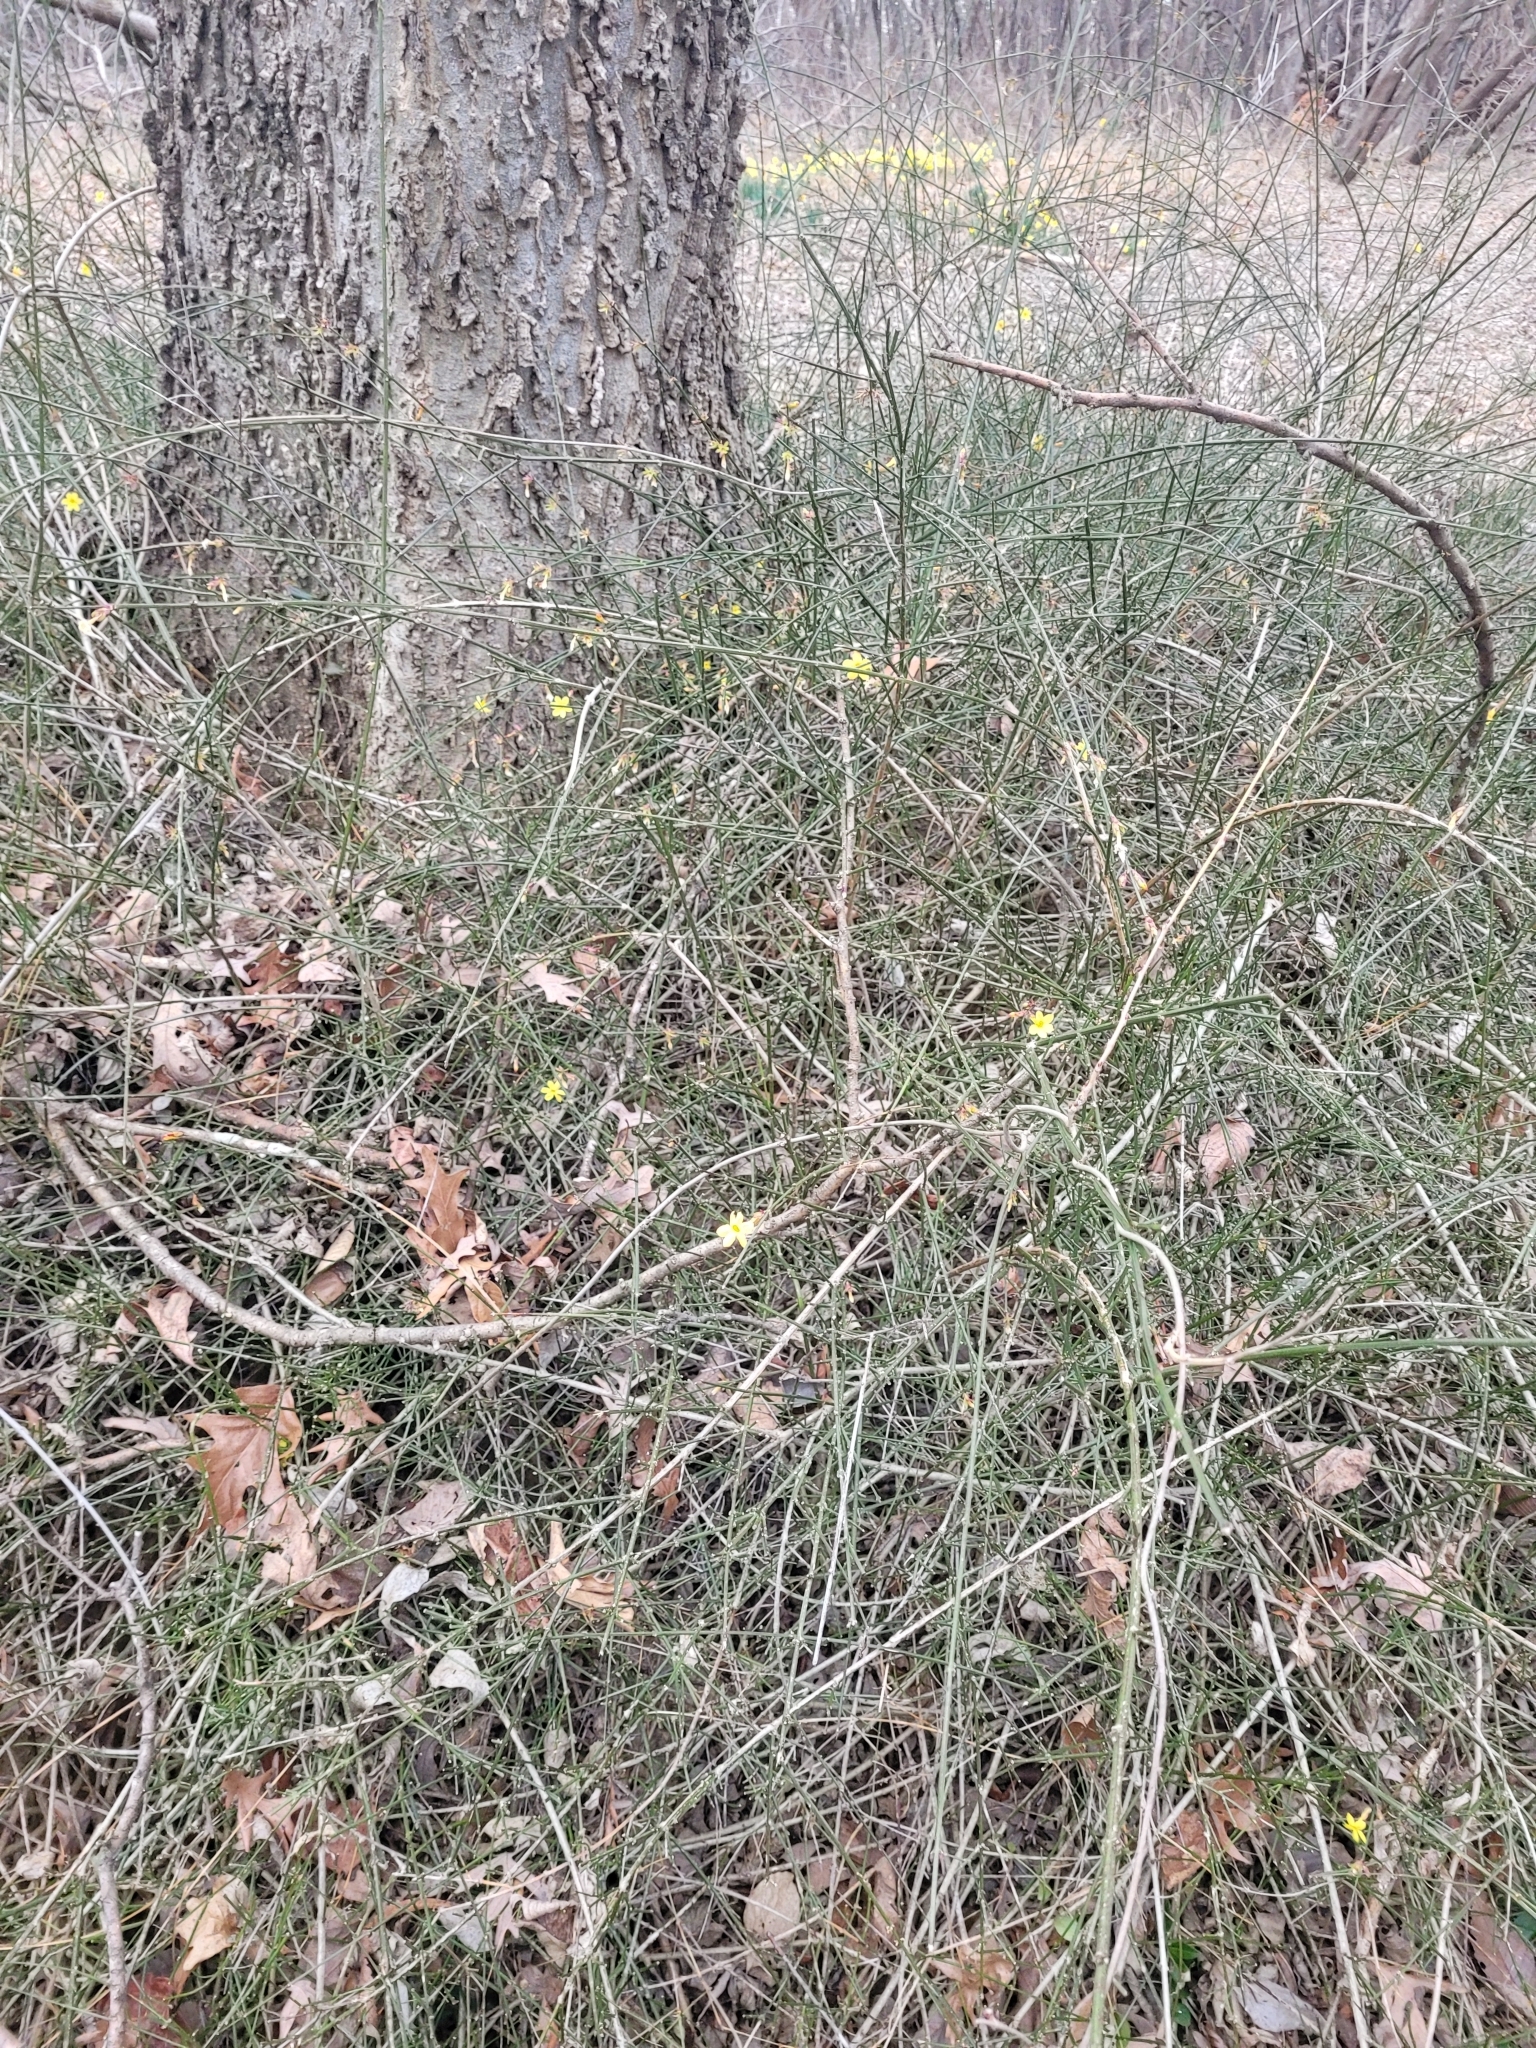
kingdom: Plantae
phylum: Tracheophyta
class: Magnoliopsida
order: Lamiales
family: Oleaceae
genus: Jasminum
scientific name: Jasminum nudiflorum
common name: Winter jasmine
